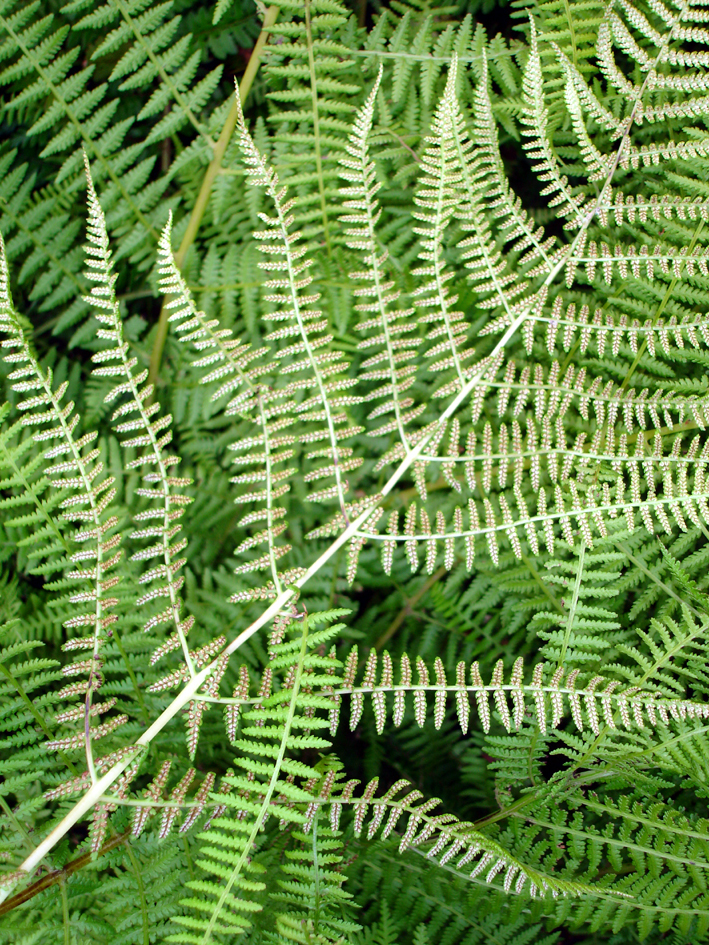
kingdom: Plantae
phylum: Tracheophyta
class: Polypodiopsida
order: Polypodiales
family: Athyriaceae
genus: Athyrium
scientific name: Athyrium filix-femina
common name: Lady fern
